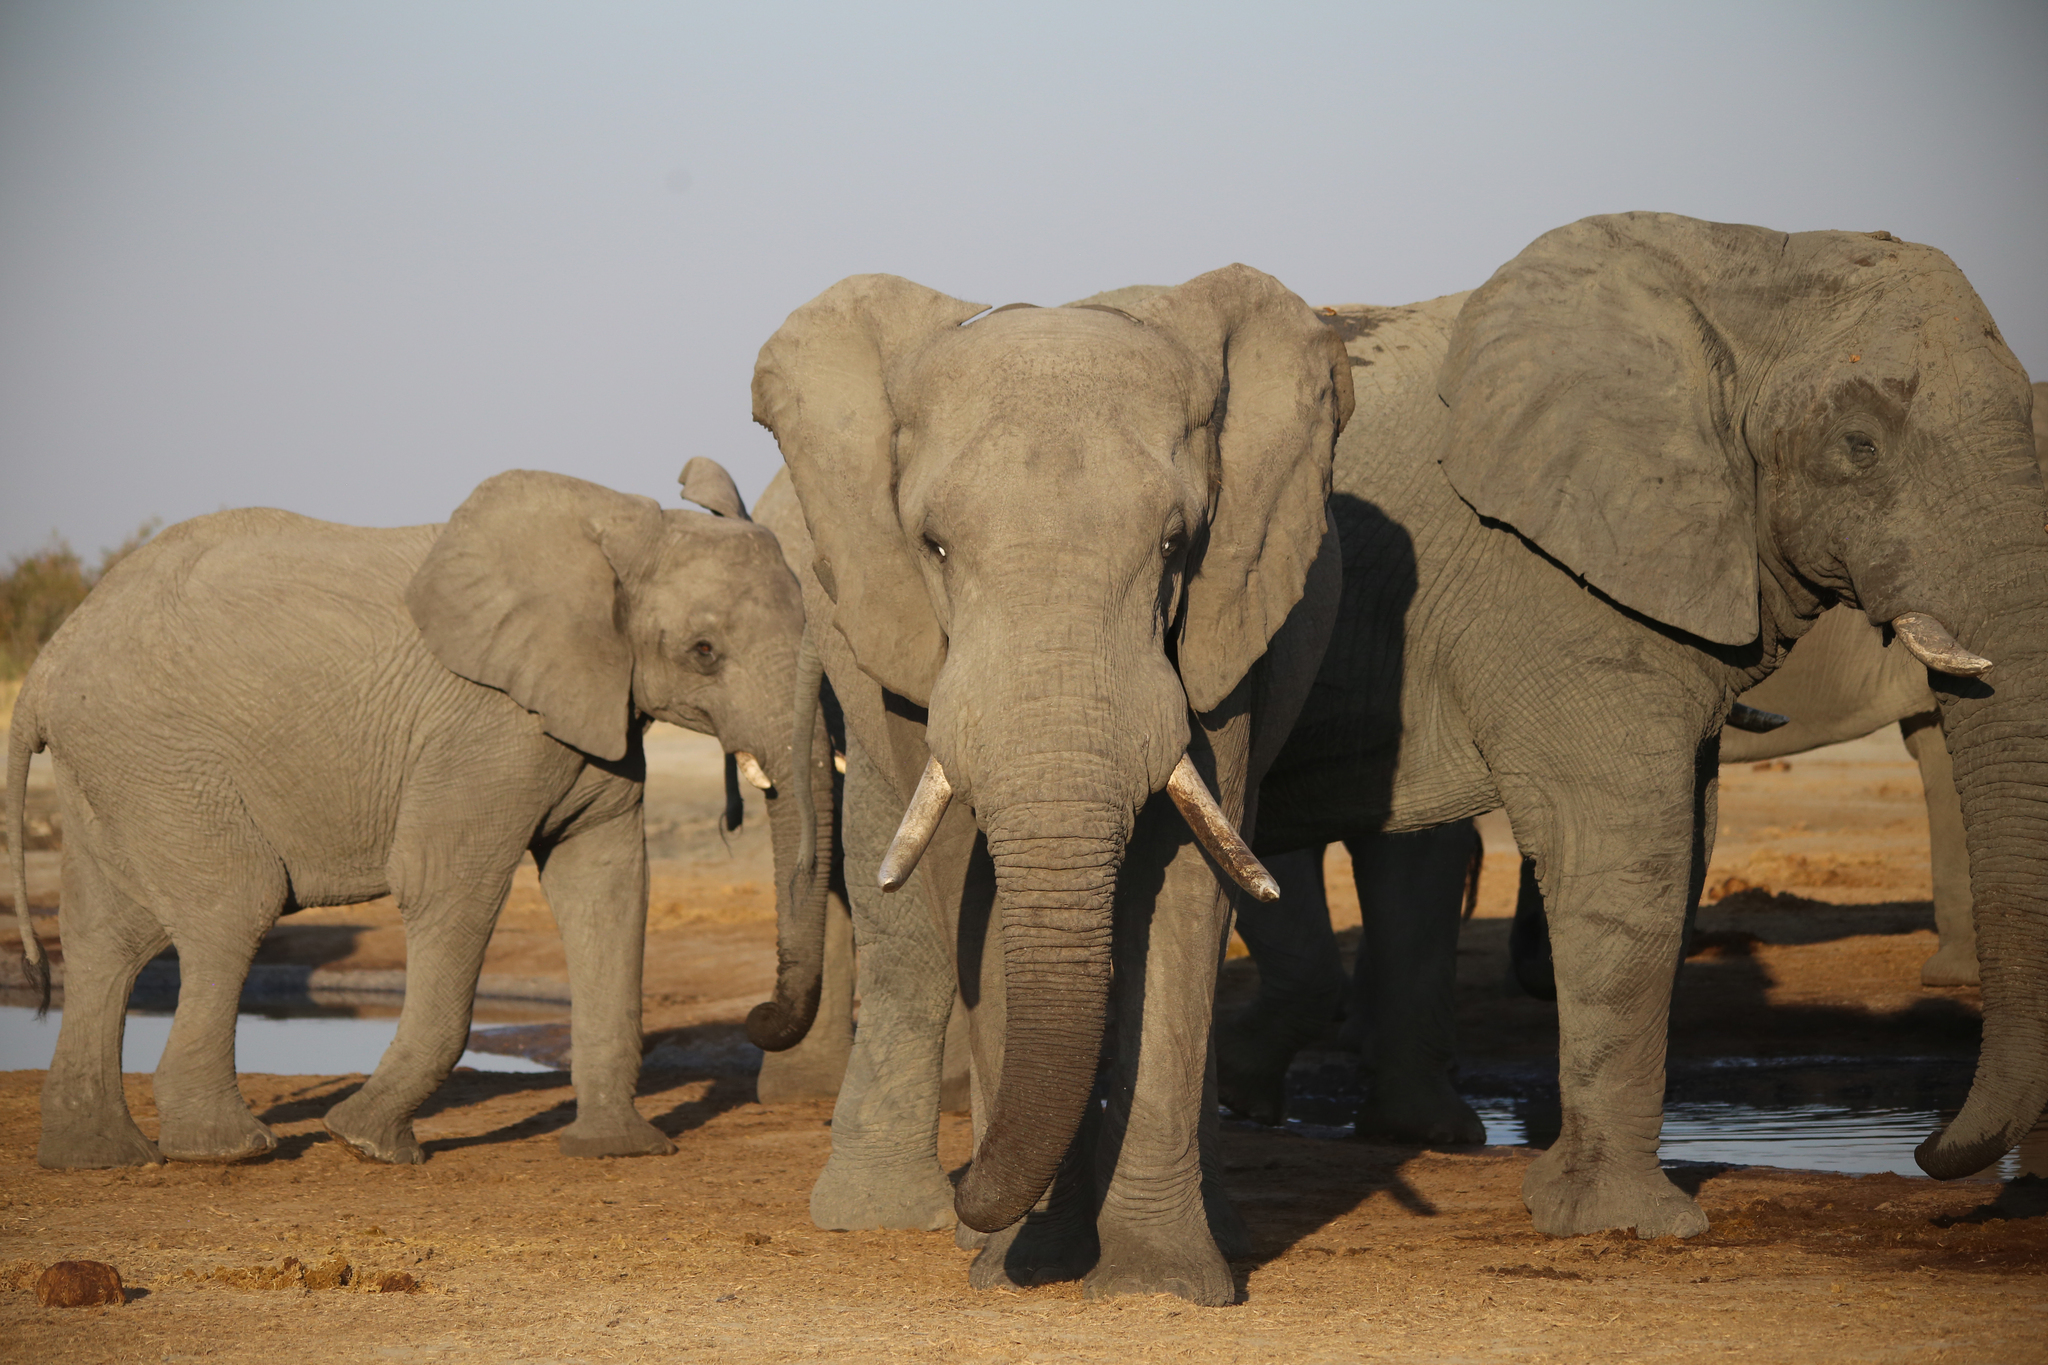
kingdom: Animalia
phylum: Chordata
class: Mammalia
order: Proboscidea
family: Elephantidae
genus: Loxodonta
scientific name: Loxodonta africana
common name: African elephant
